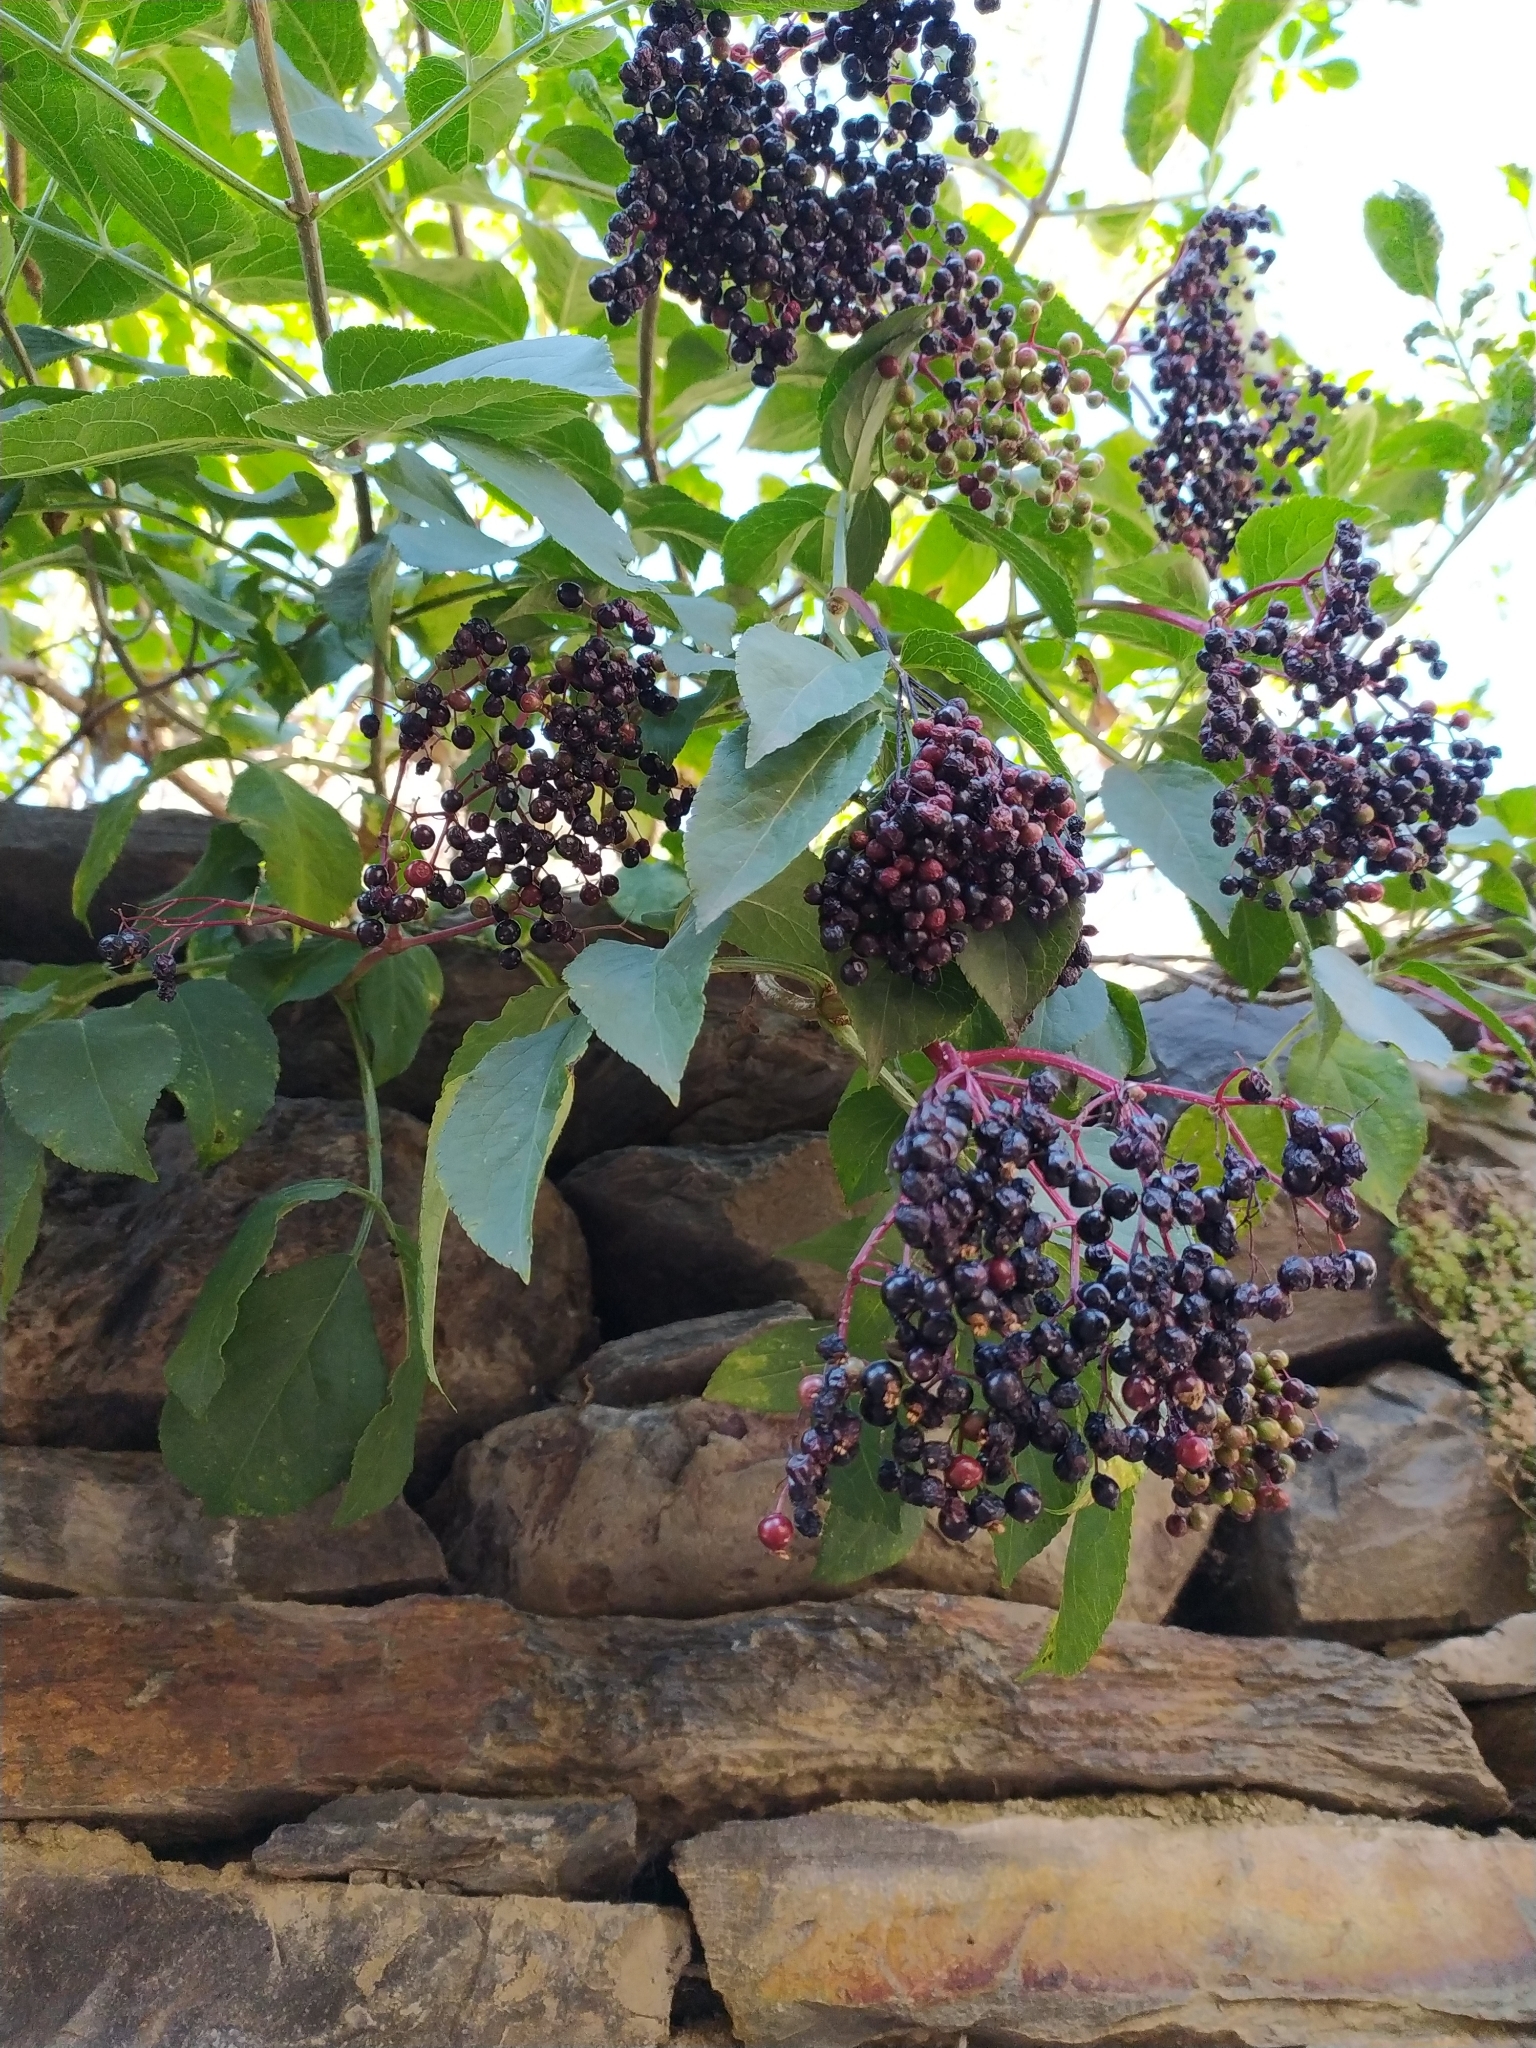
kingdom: Plantae
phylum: Tracheophyta
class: Magnoliopsida
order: Dipsacales
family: Viburnaceae
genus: Sambucus
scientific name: Sambucus nigra
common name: Elder
